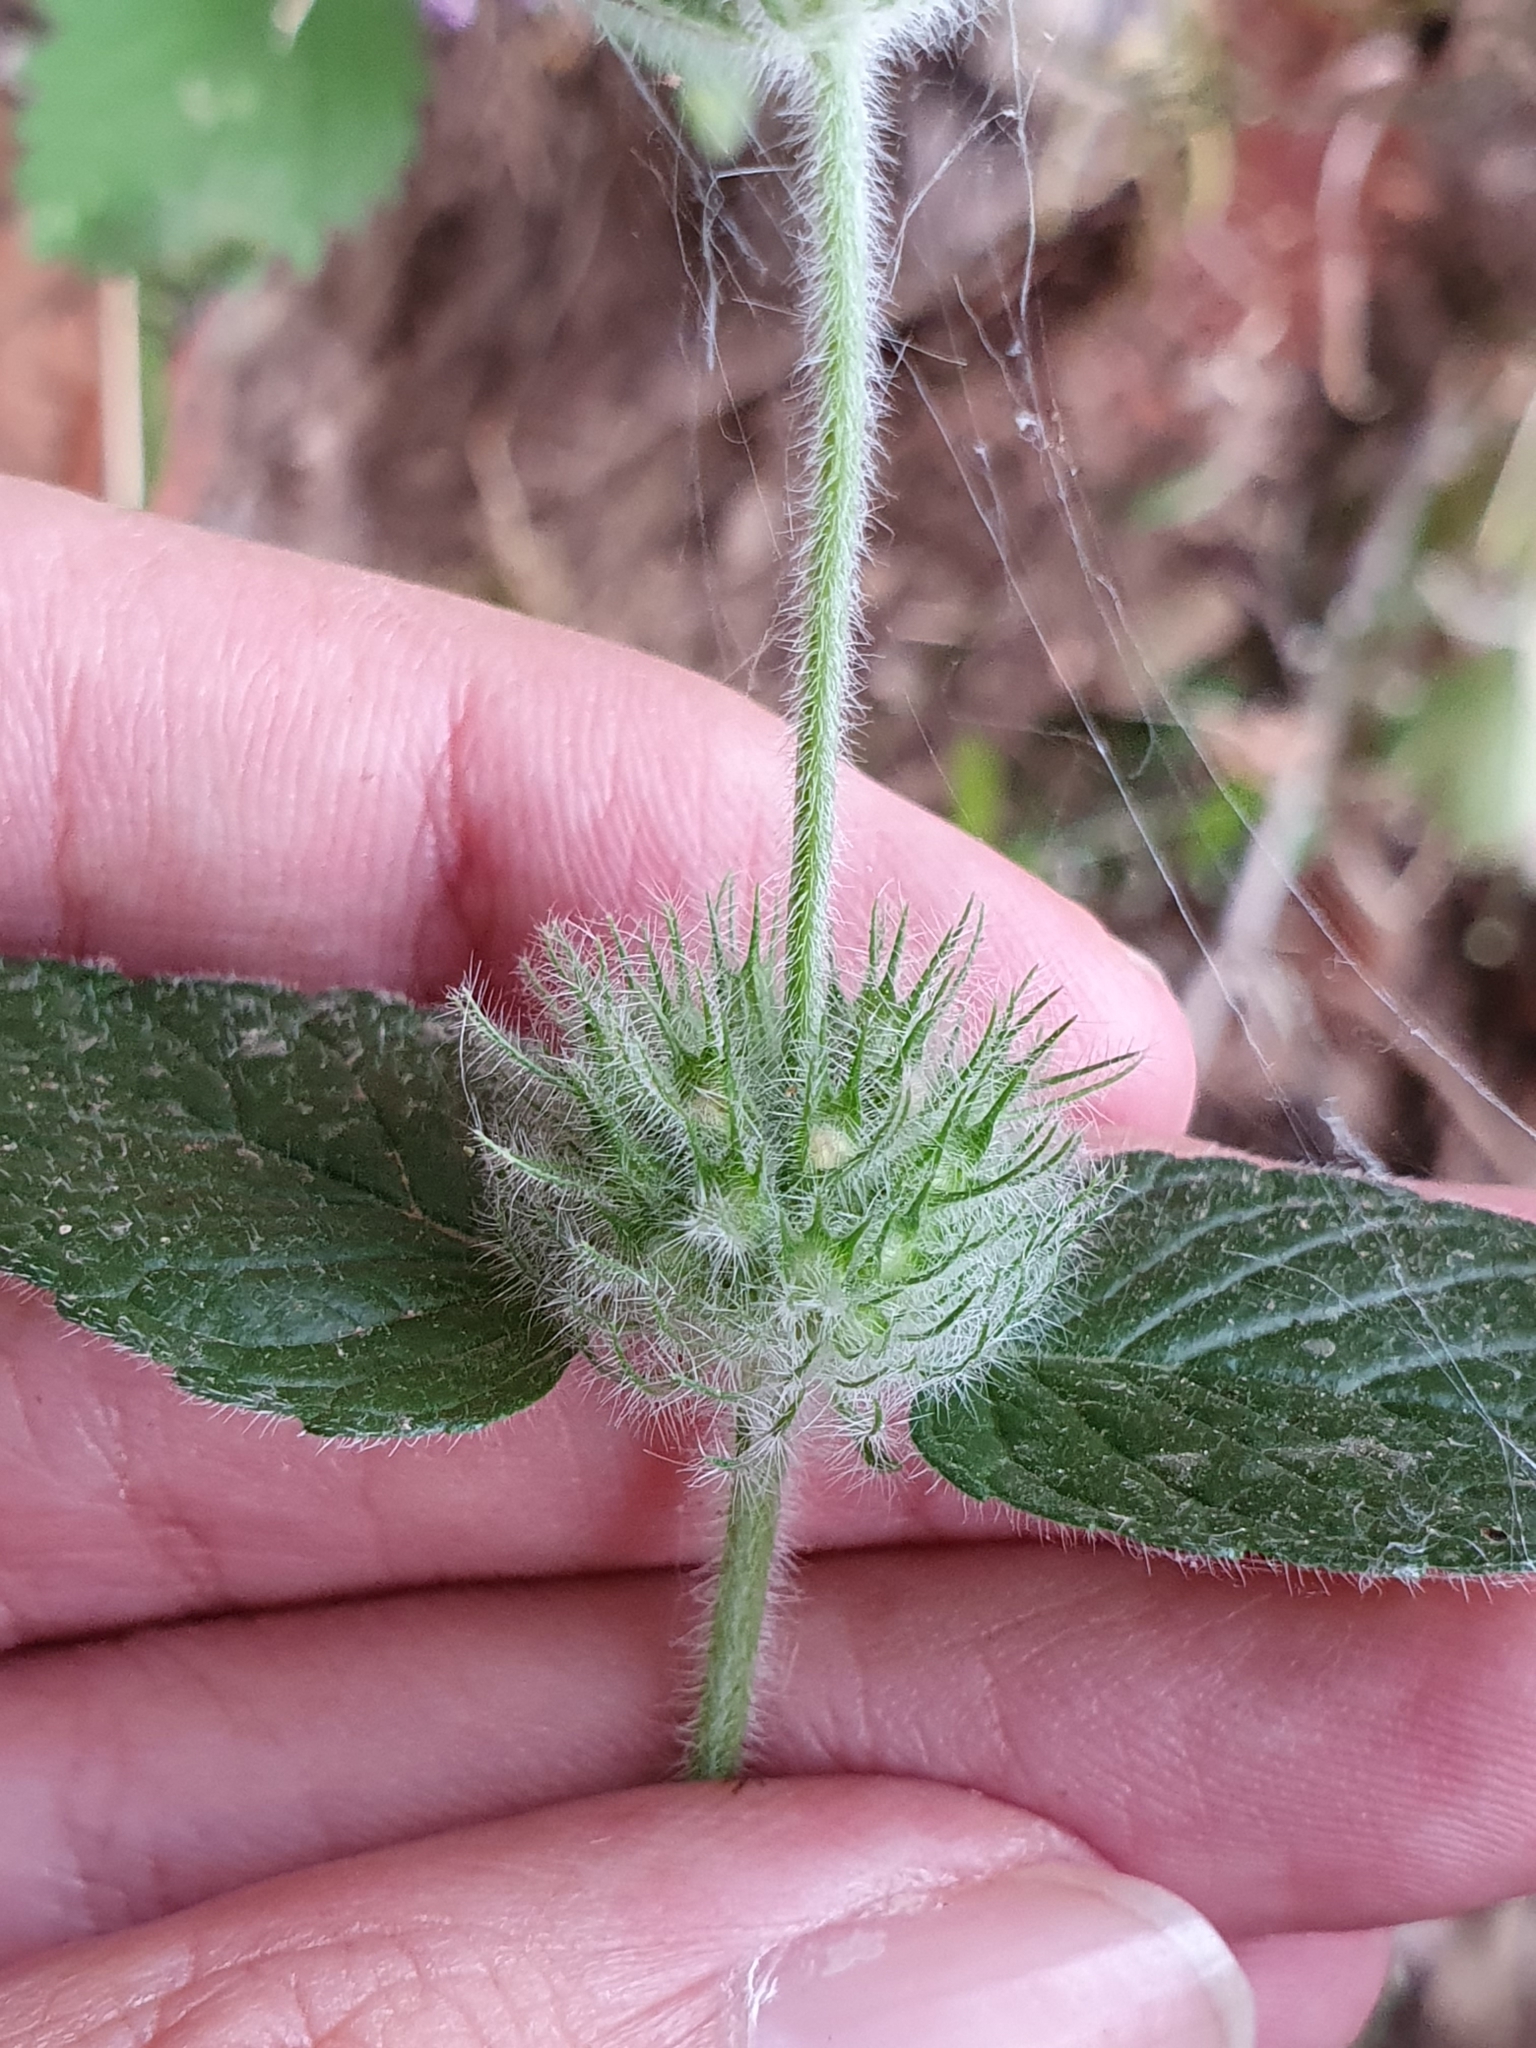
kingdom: Plantae
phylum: Tracheophyta
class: Magnoliopsida
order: Lamiales
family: Lamiaceae
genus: Clinopodium
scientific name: Clinopodium vulgare
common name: Wild basil
